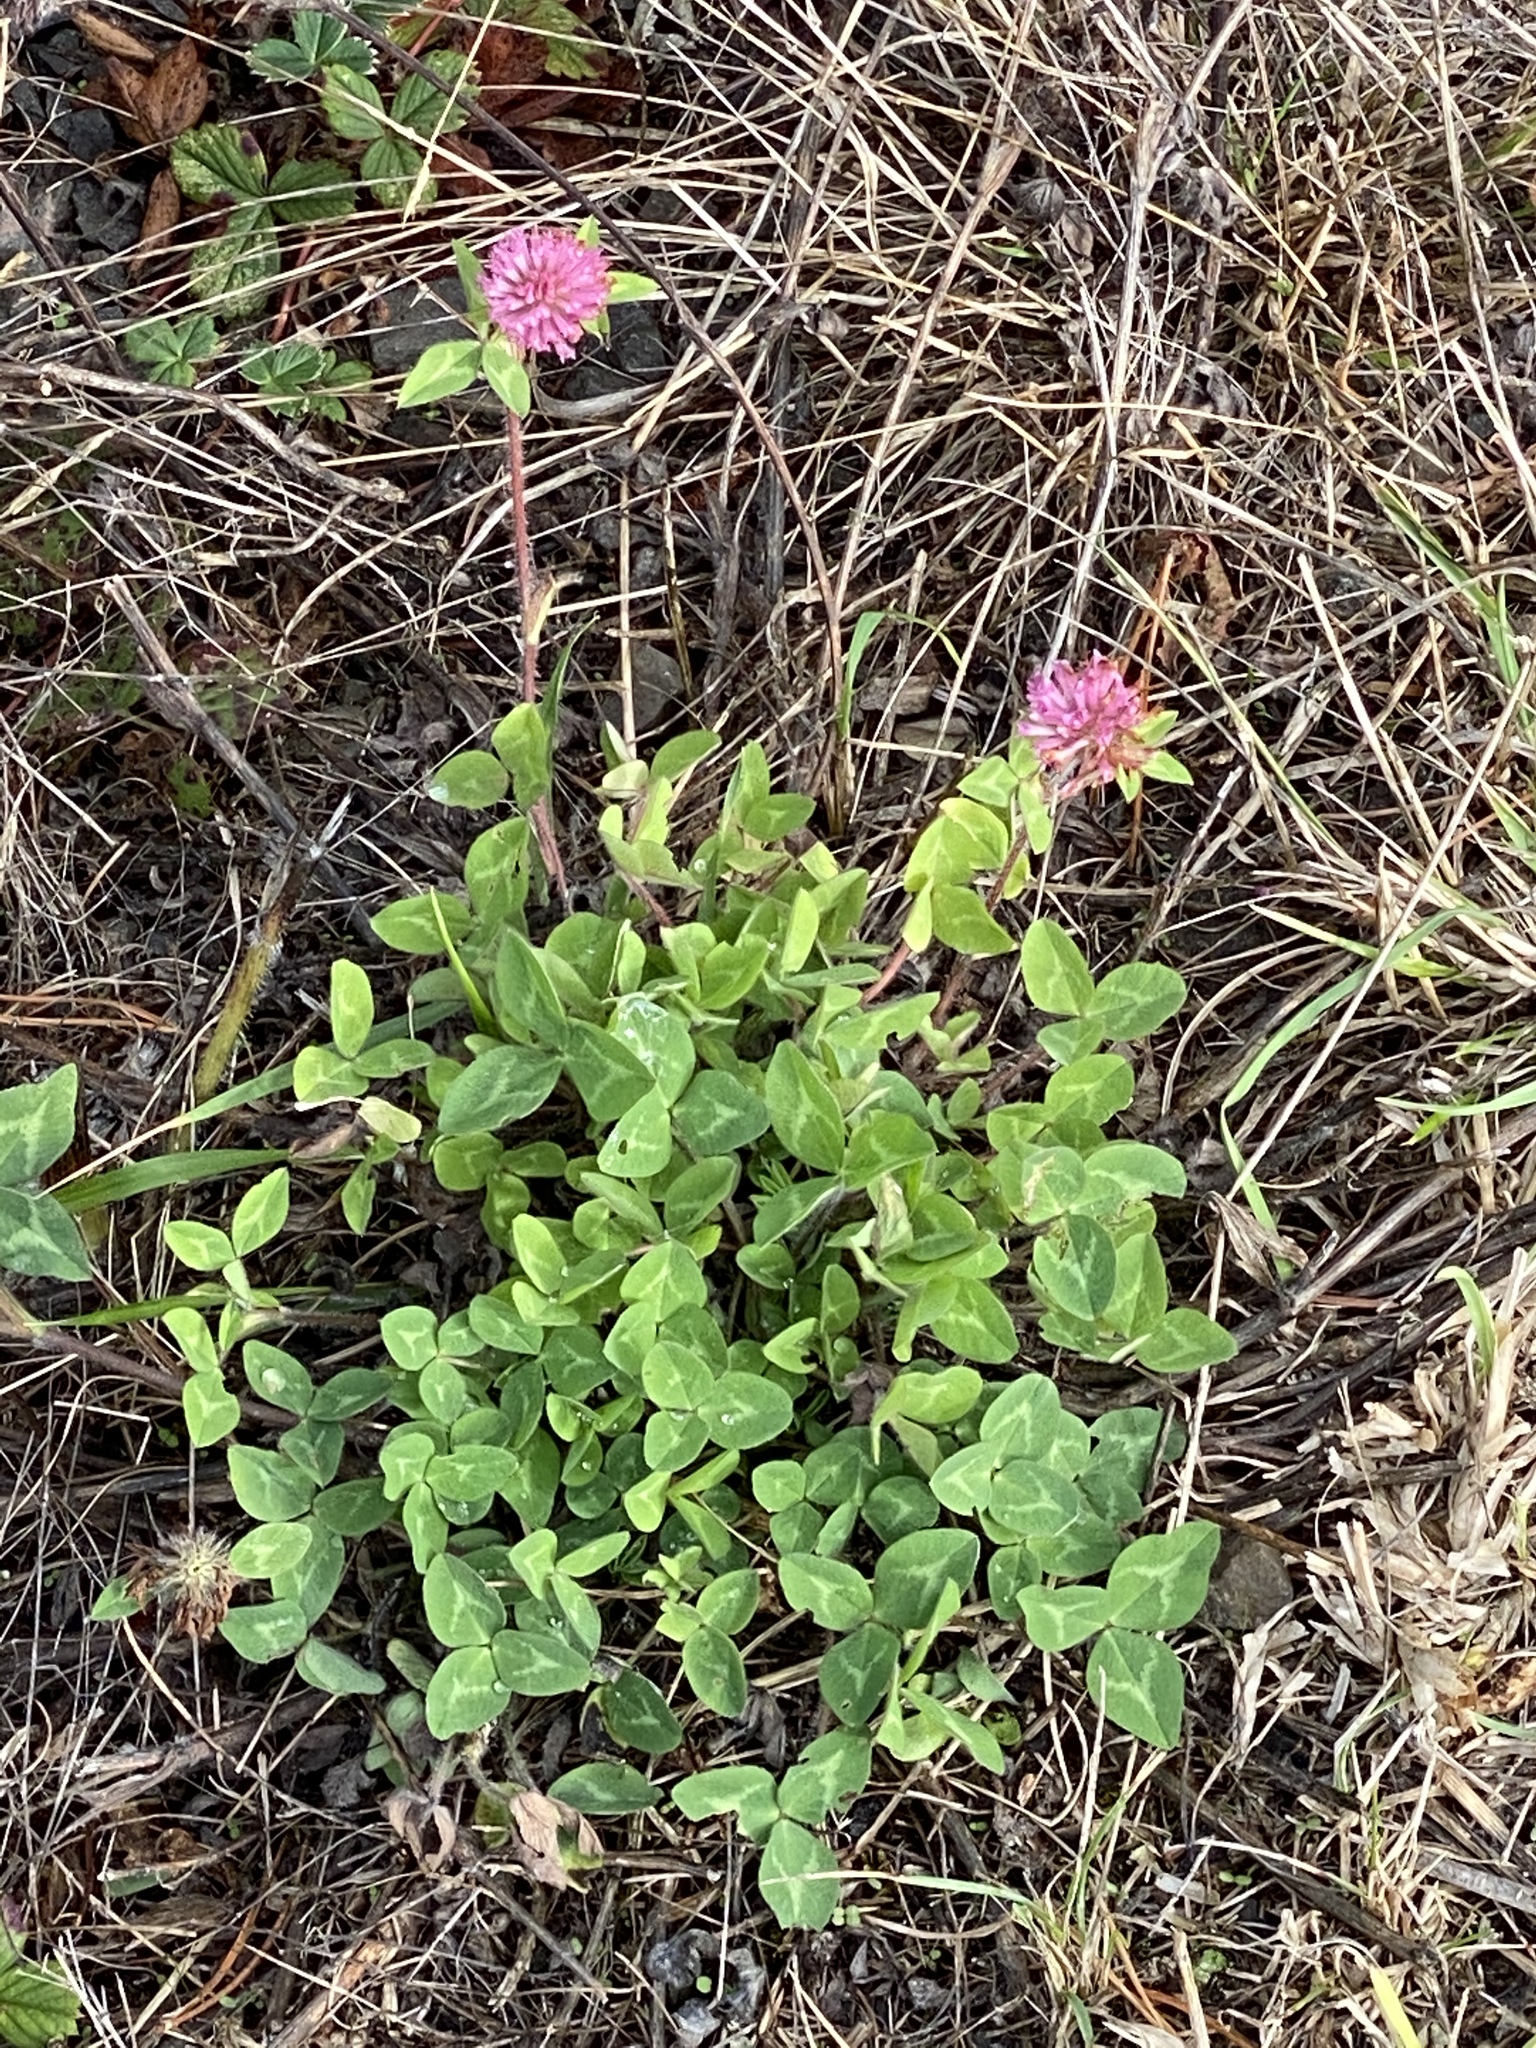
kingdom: Plantae
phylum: Tracheophyta
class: Magnoliopsida
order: Fabales
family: Fabaceae
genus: Trifolium
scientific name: Trifolium pratense
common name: Red clover
